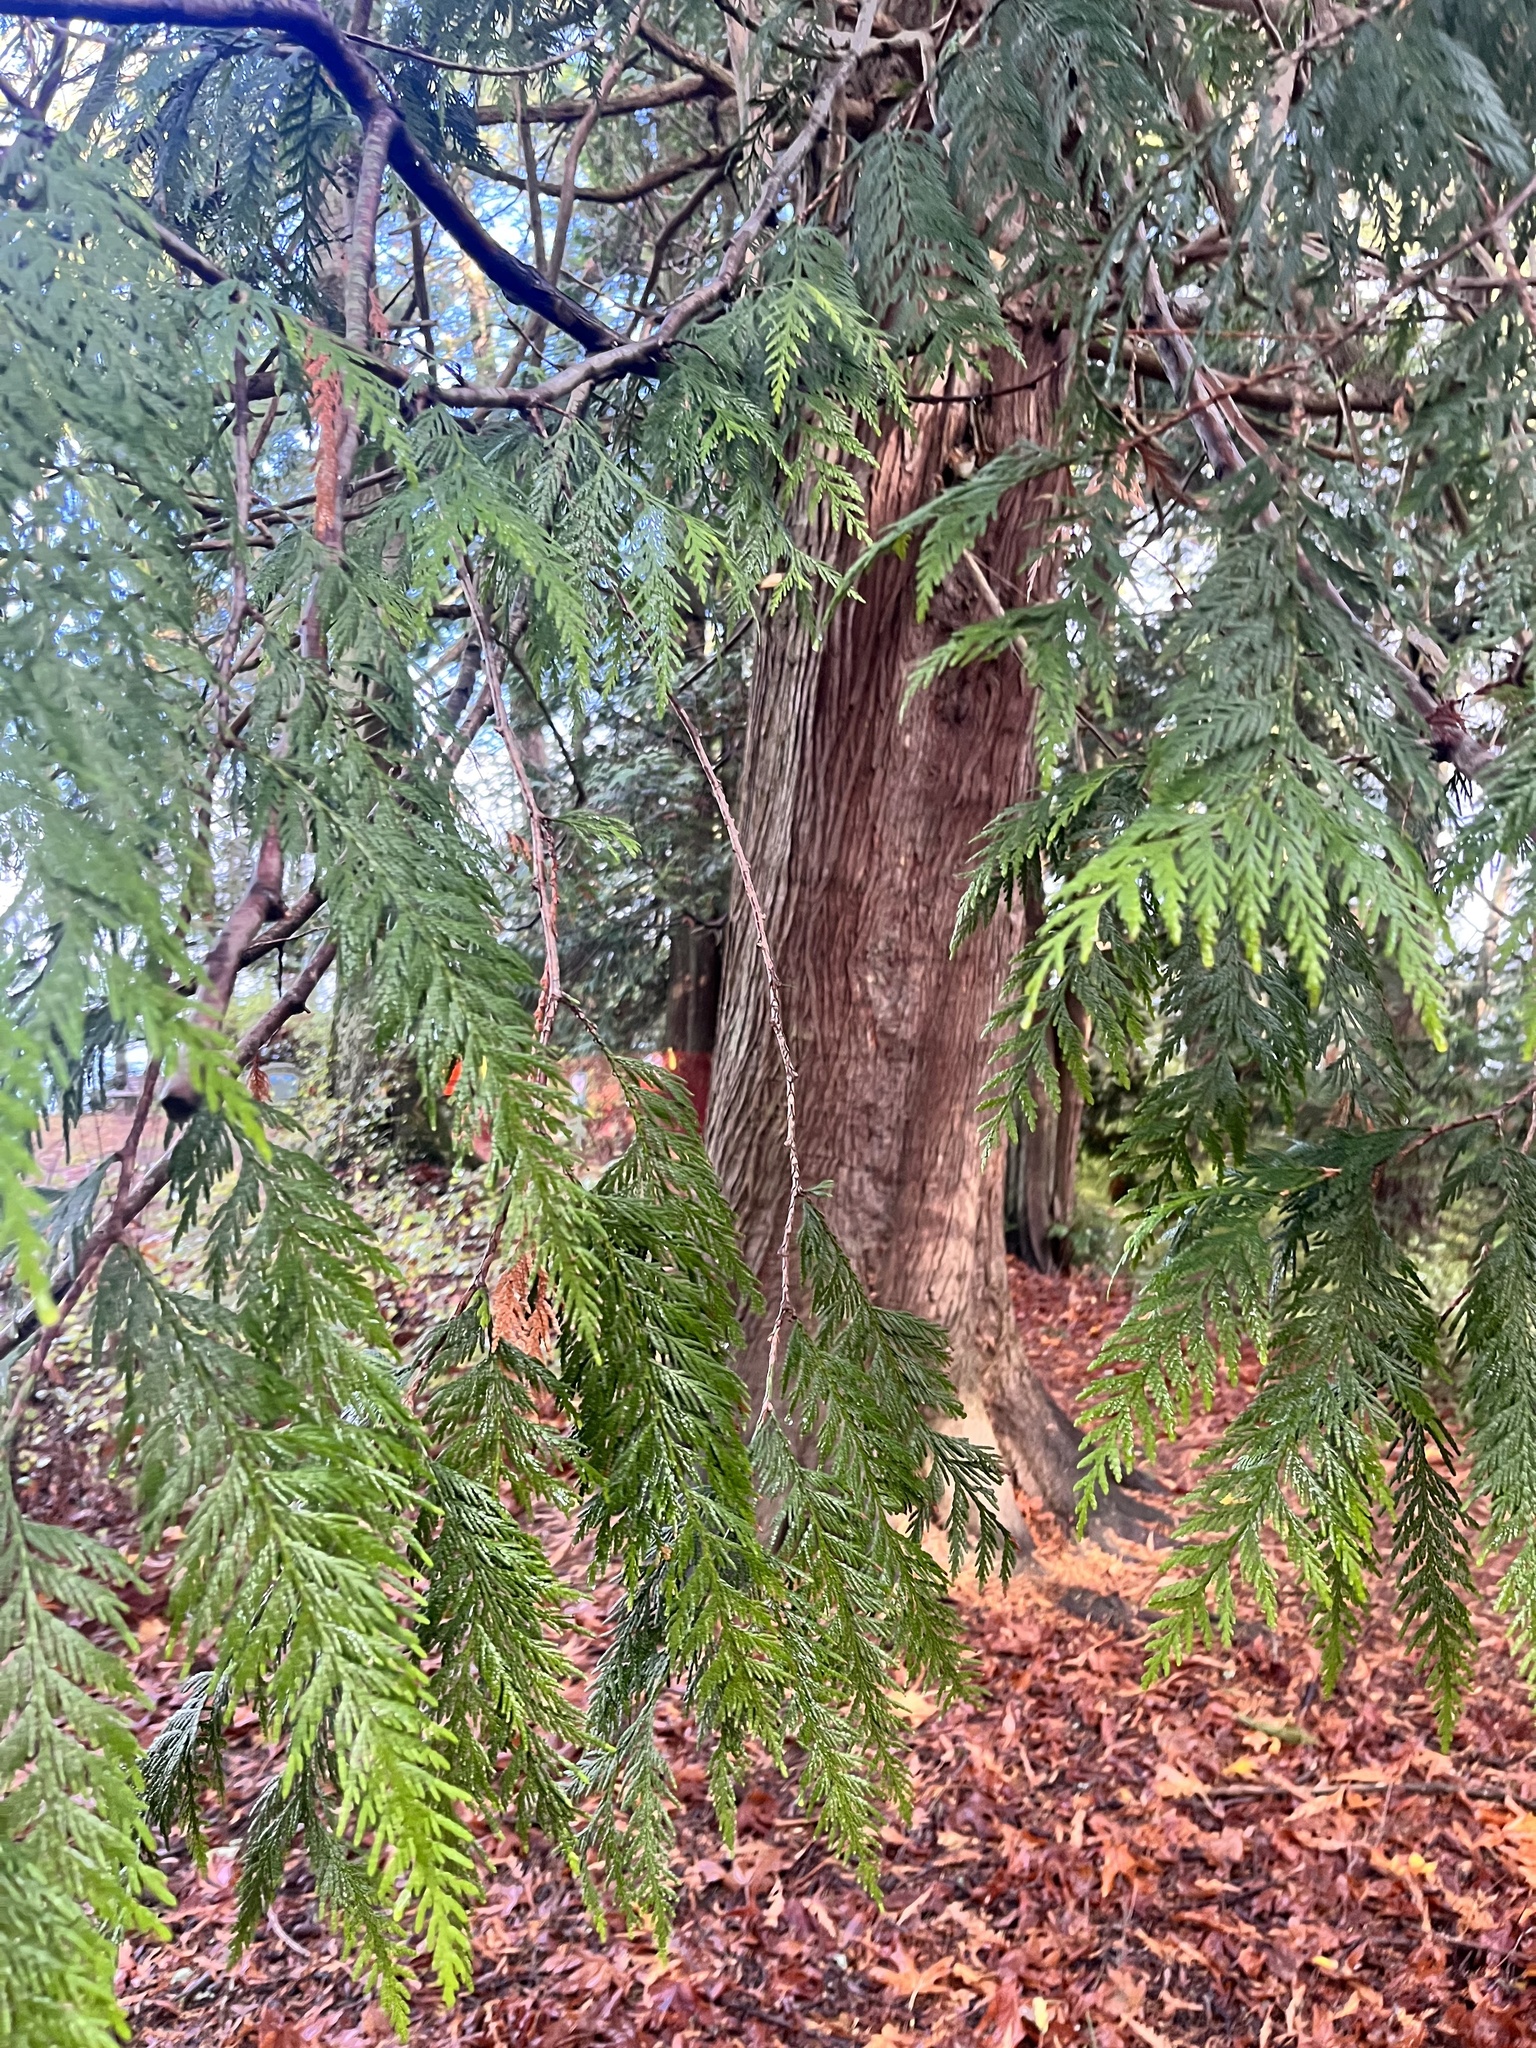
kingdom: Plantae
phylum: Tracheophyta
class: Pinopsida
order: Pinales
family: Cupressaceae
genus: Thuja
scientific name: Thuja plicata
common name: Western red-cedar
